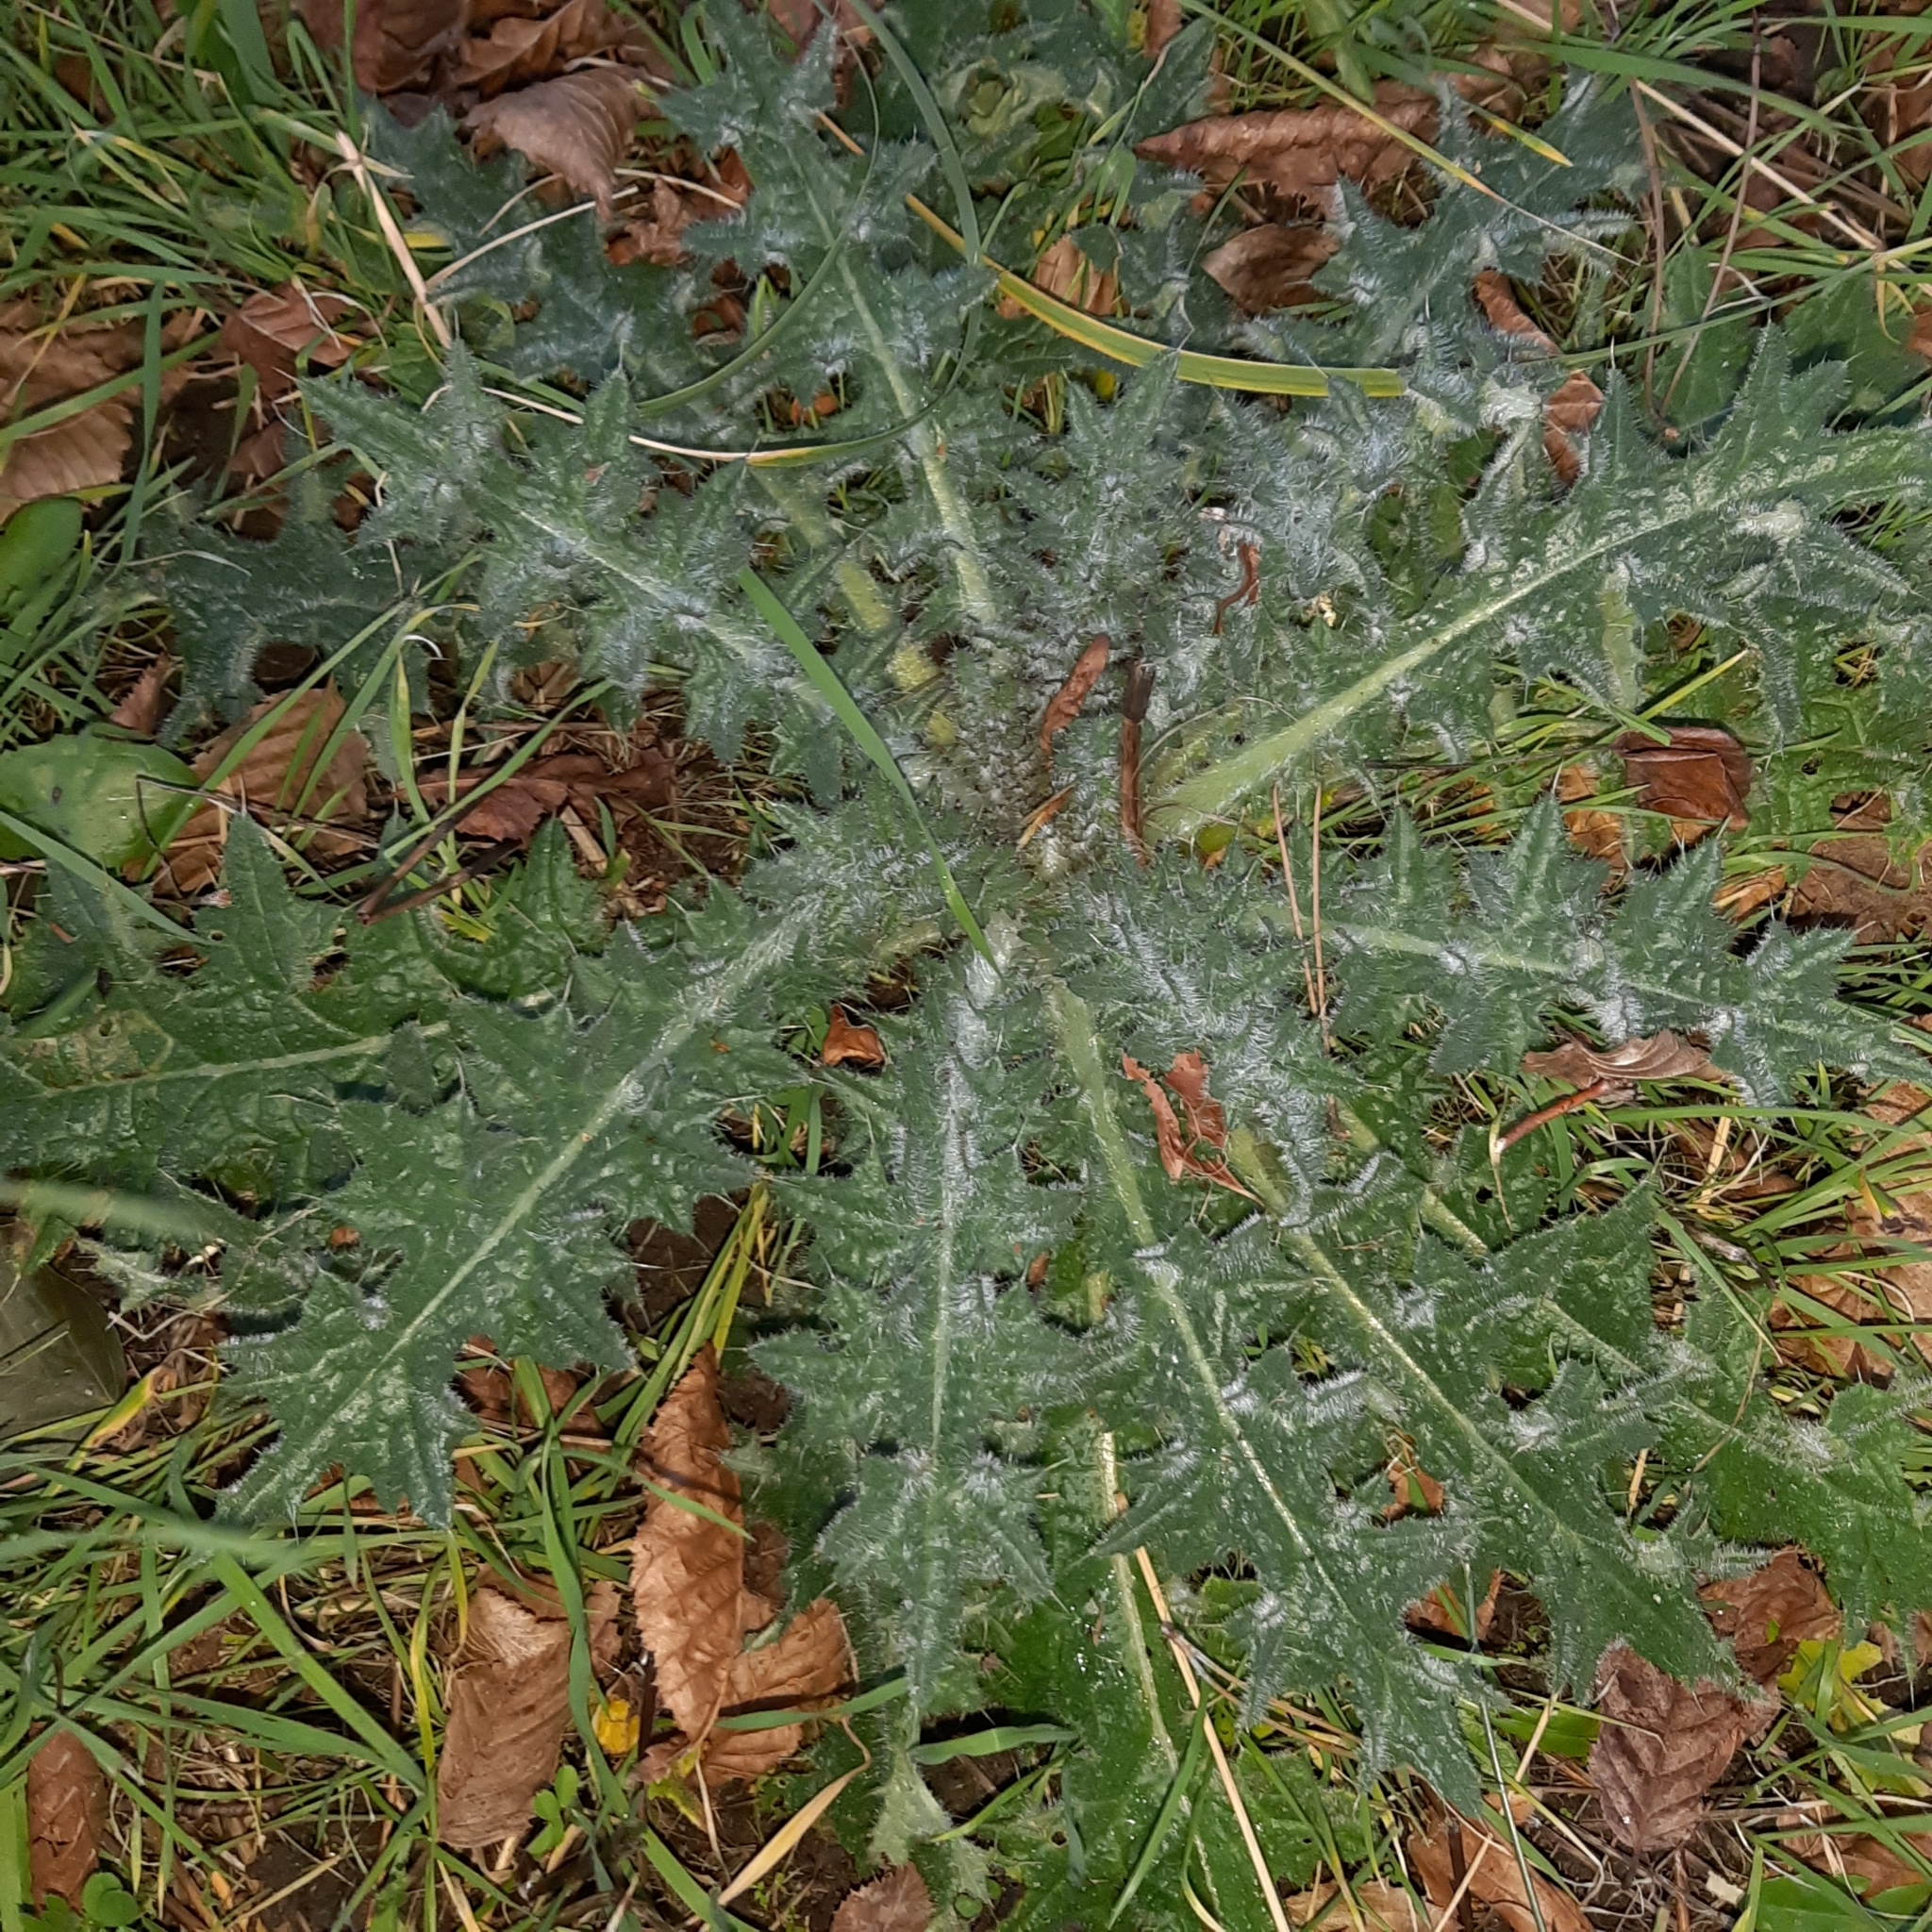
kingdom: Plantae
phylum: Tracheophyta
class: Magnoliopsida
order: Asterales
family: Asteraceae
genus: Cirsium
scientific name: Cirsium vulgare
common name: Bull thistle
